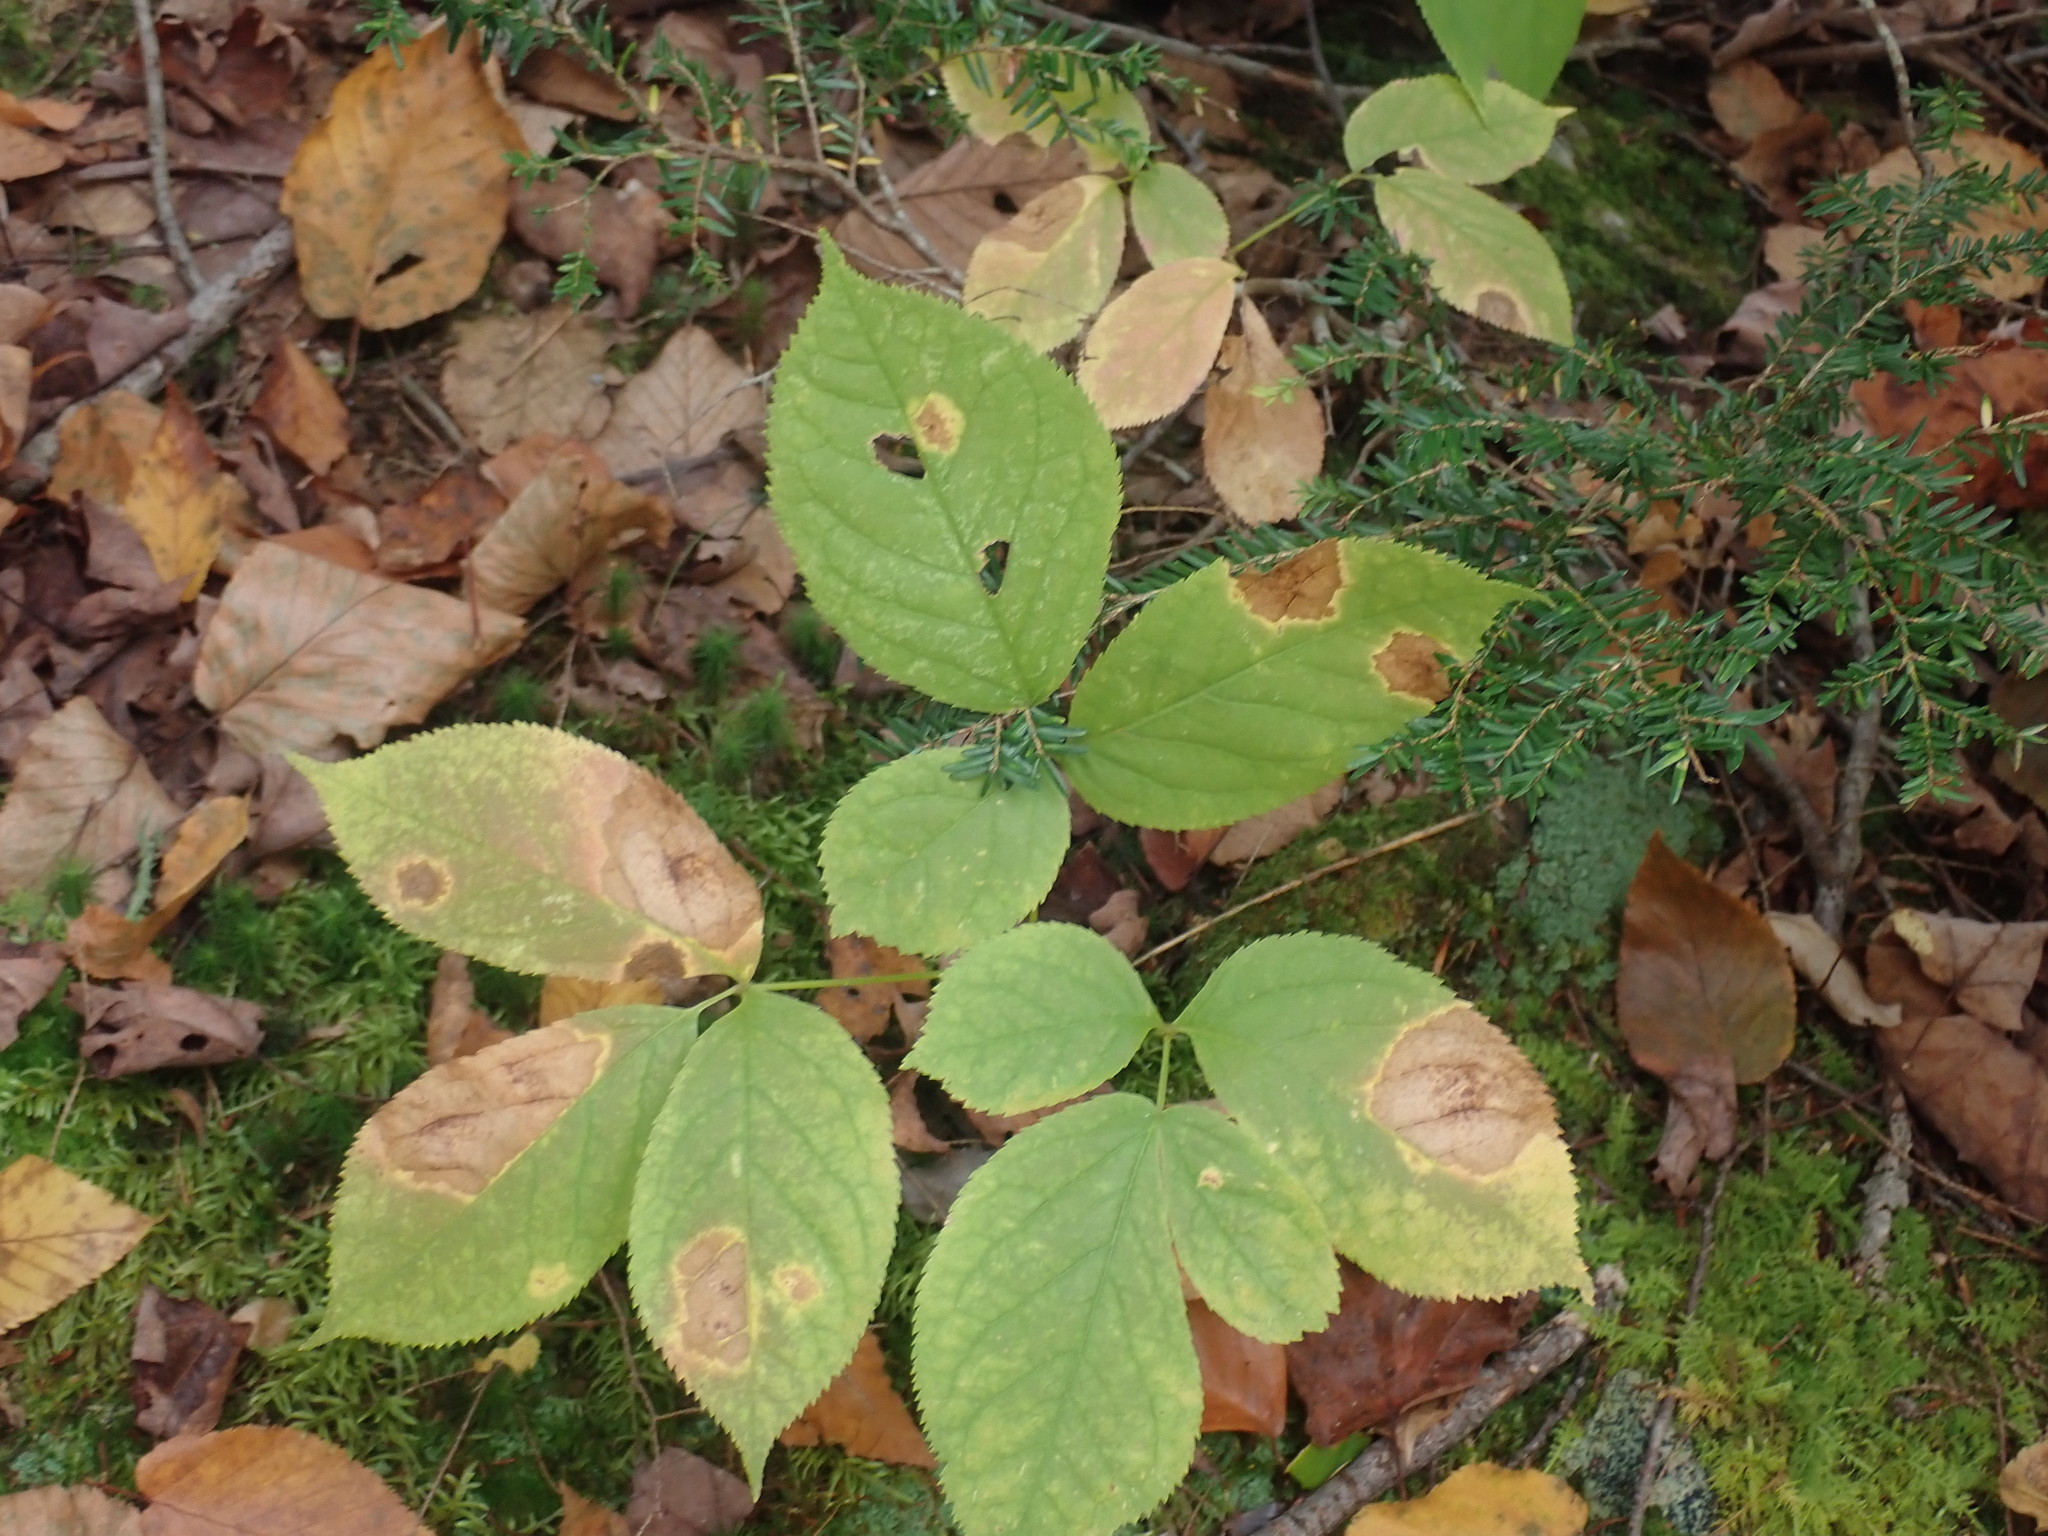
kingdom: Plantae
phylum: Tracheophyta
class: Magnoliopsida
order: Apiales
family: Araliaceae
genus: Aralia
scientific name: Aralia nudicaulis
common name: Wild sarsaparilla
